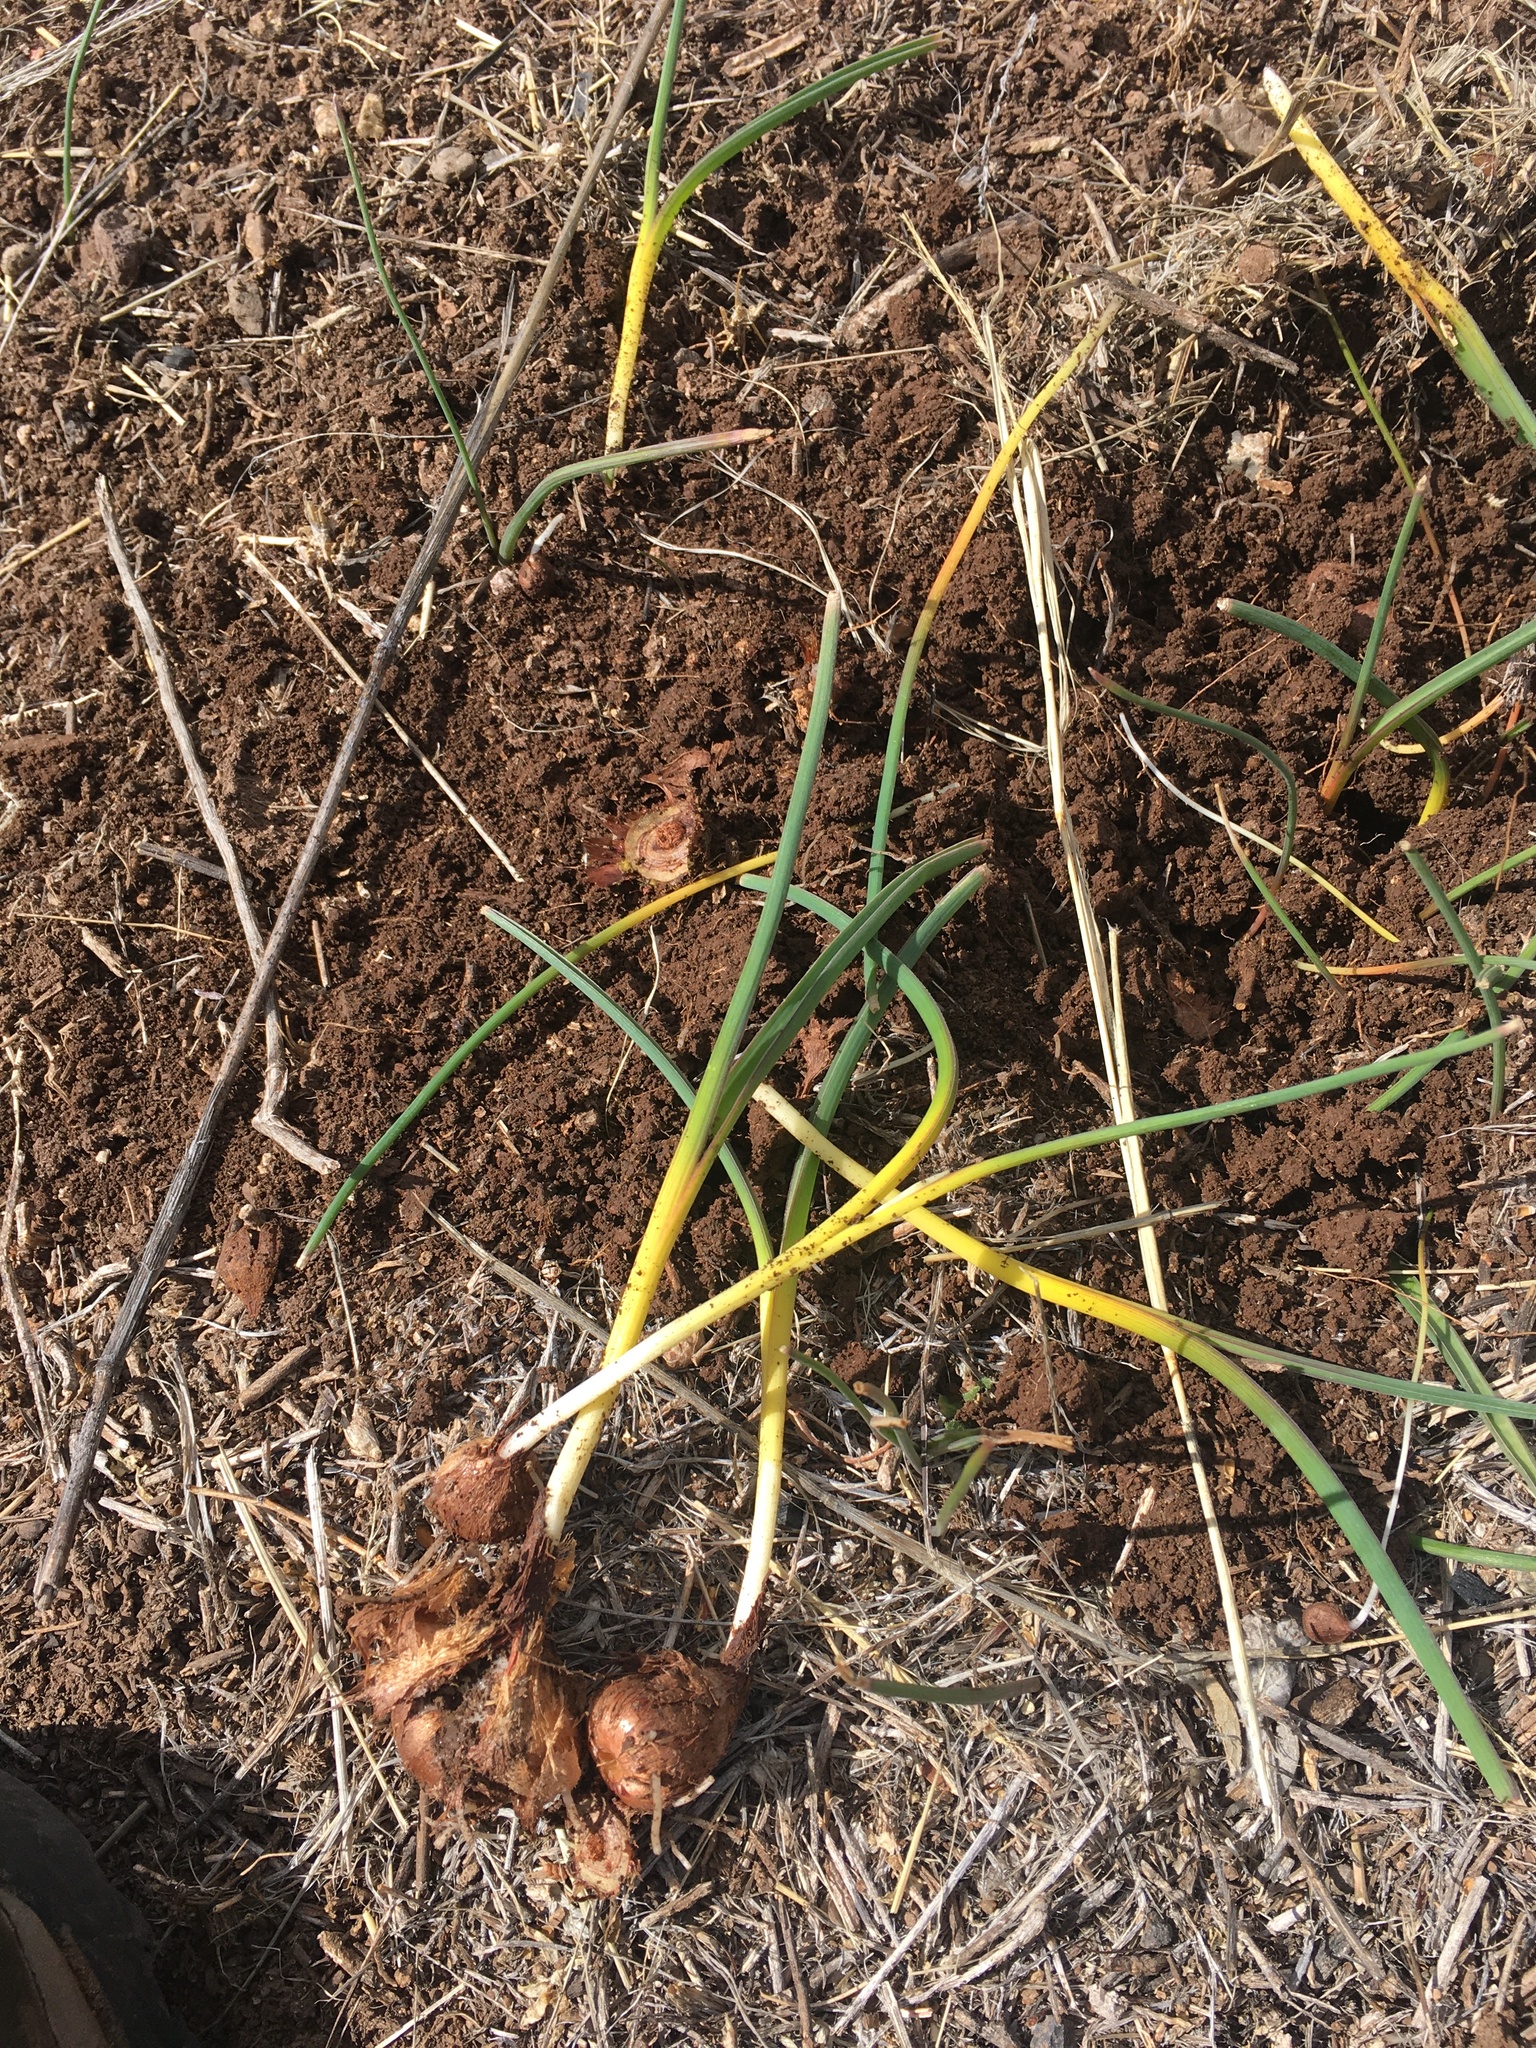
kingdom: Plantae
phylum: Tracheophyta
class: Liliopsida
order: Asparagales
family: Asparagaceae
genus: Dipterostemon
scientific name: Dipterostemon capitatus
